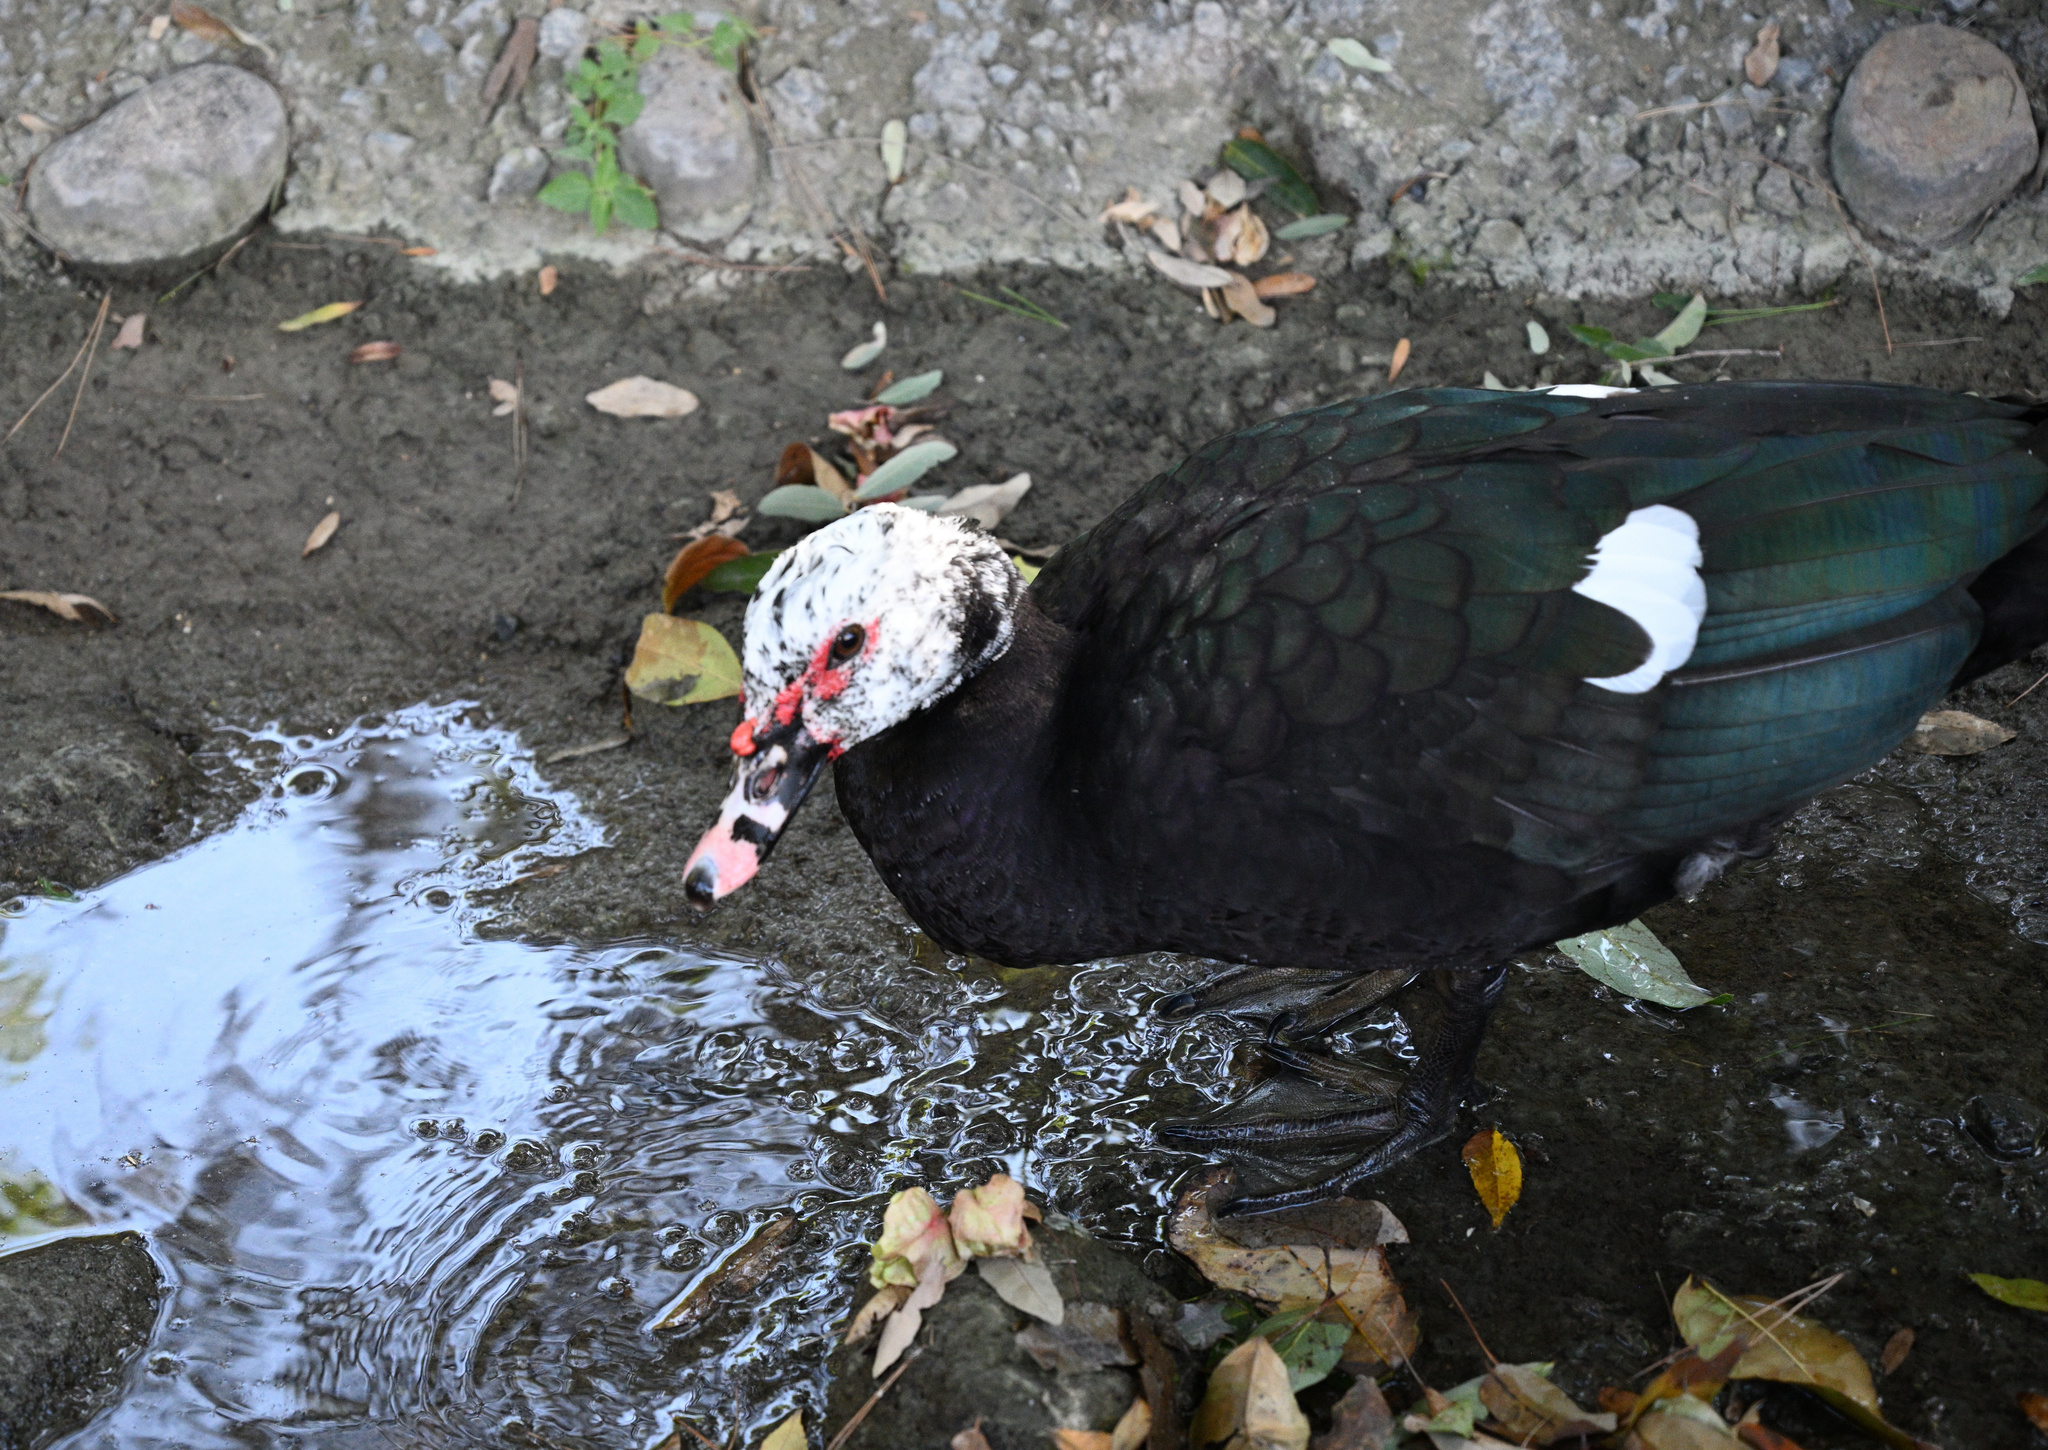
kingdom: Animalia
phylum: Chordata
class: Aves
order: Anseriformes
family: Anatidae
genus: Cairina
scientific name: Cairina moschata
